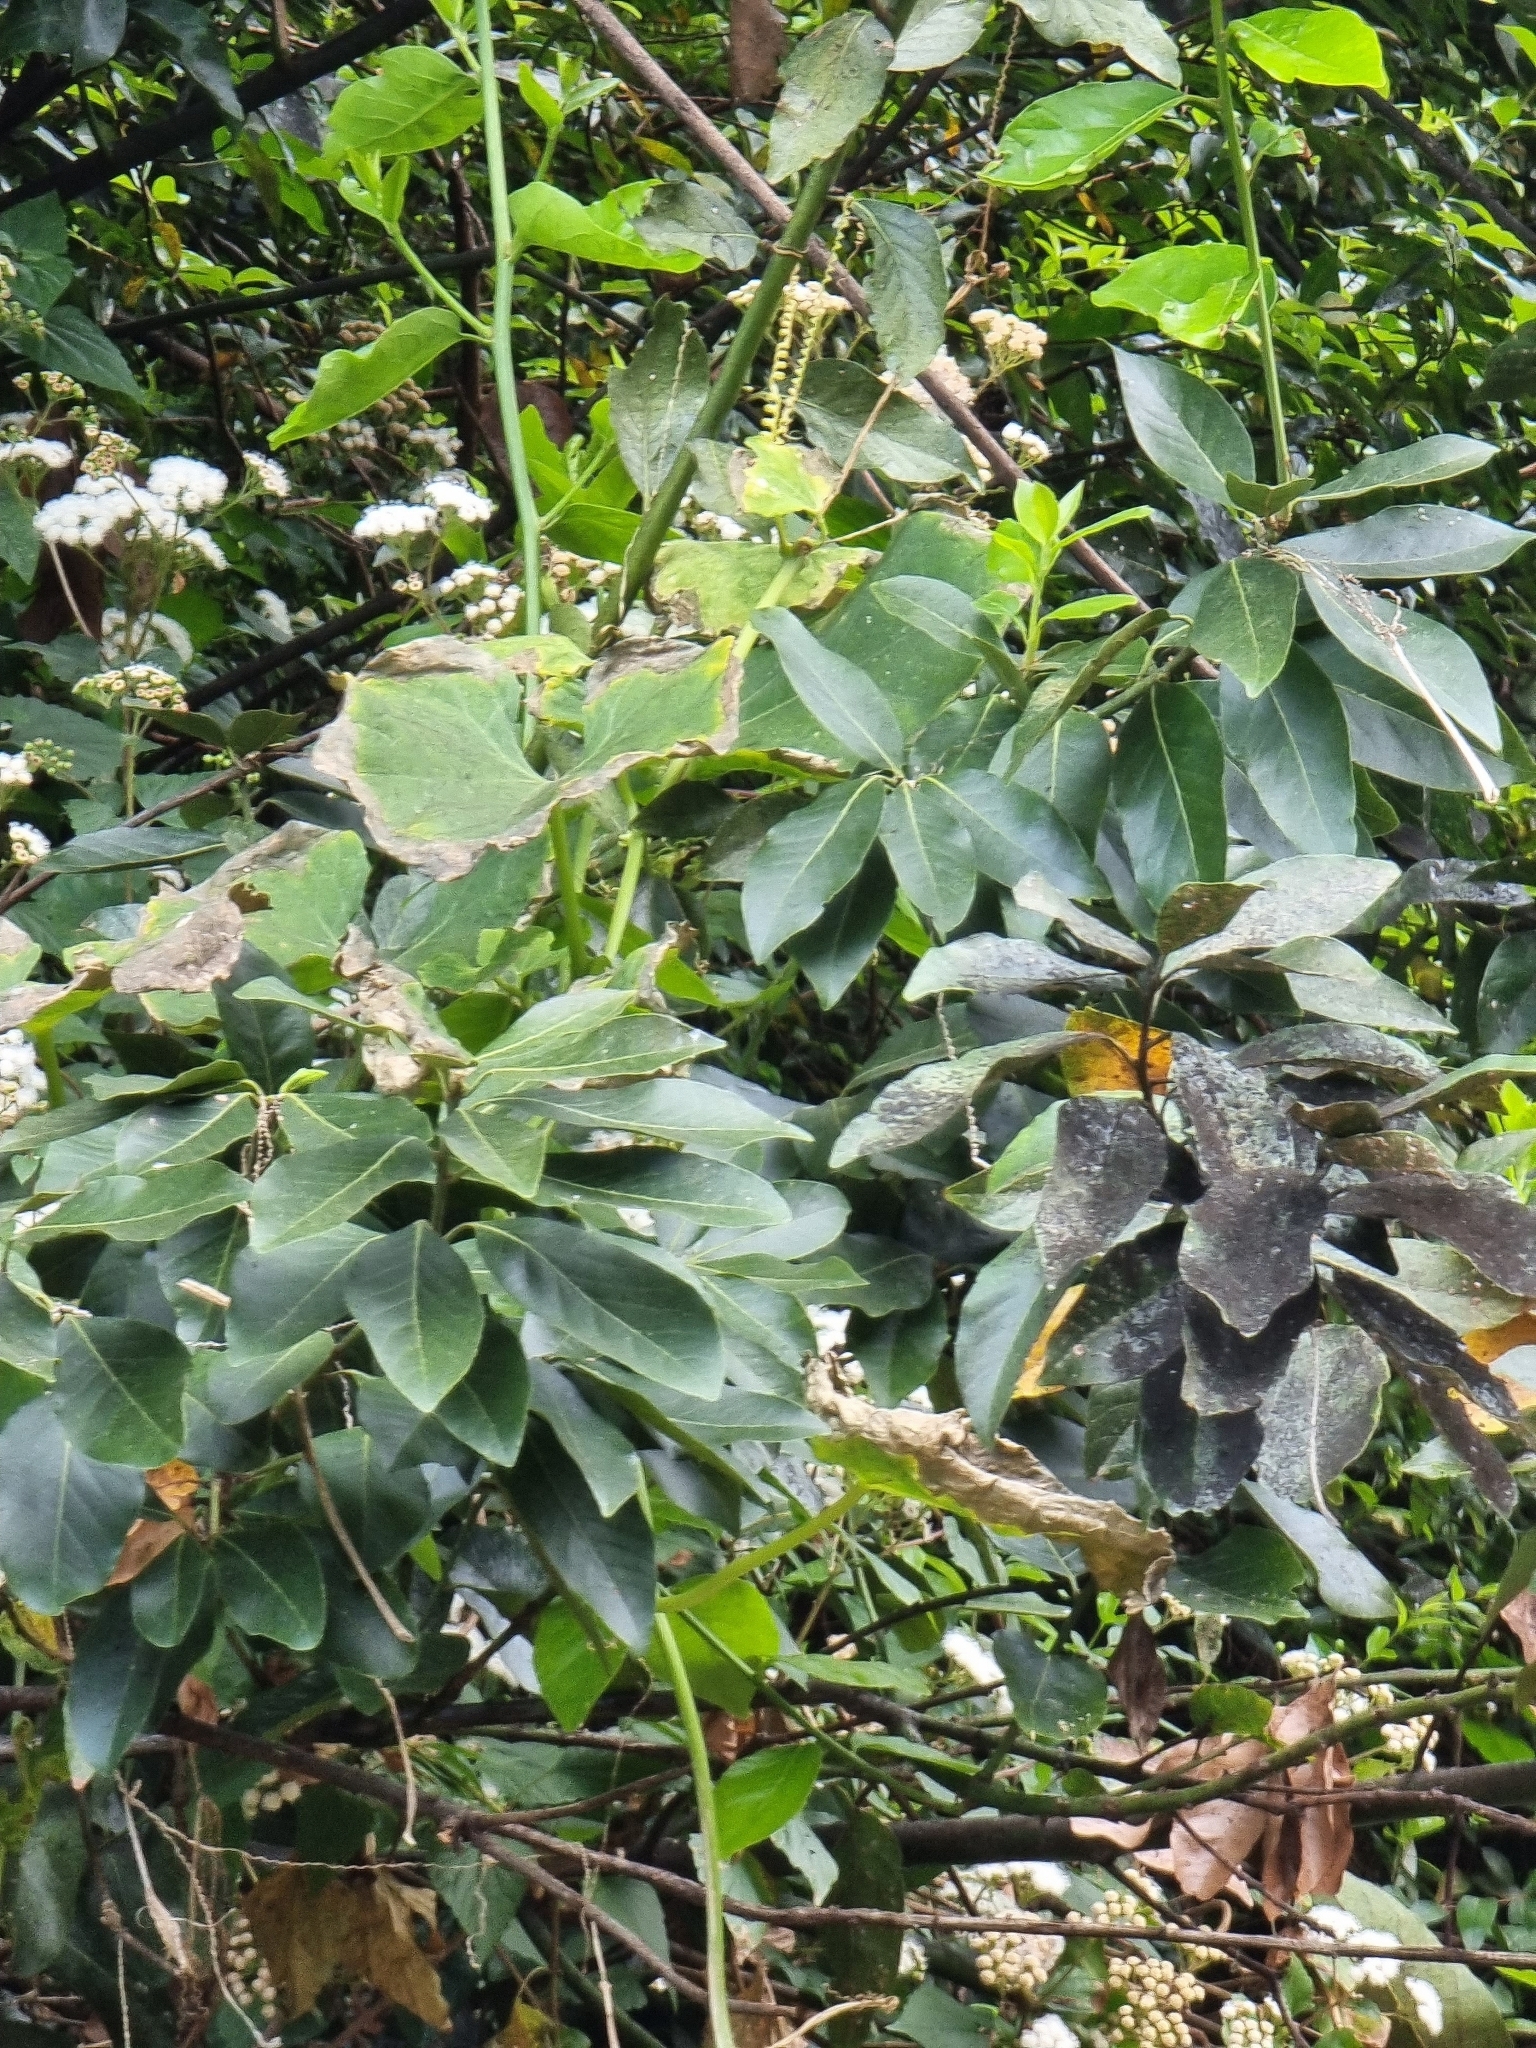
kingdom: Plantae
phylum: Tracheophyta
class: Magnoliopsida
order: Laurales
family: Lauraceae
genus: Laurus
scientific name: Laurus novocanariensis
